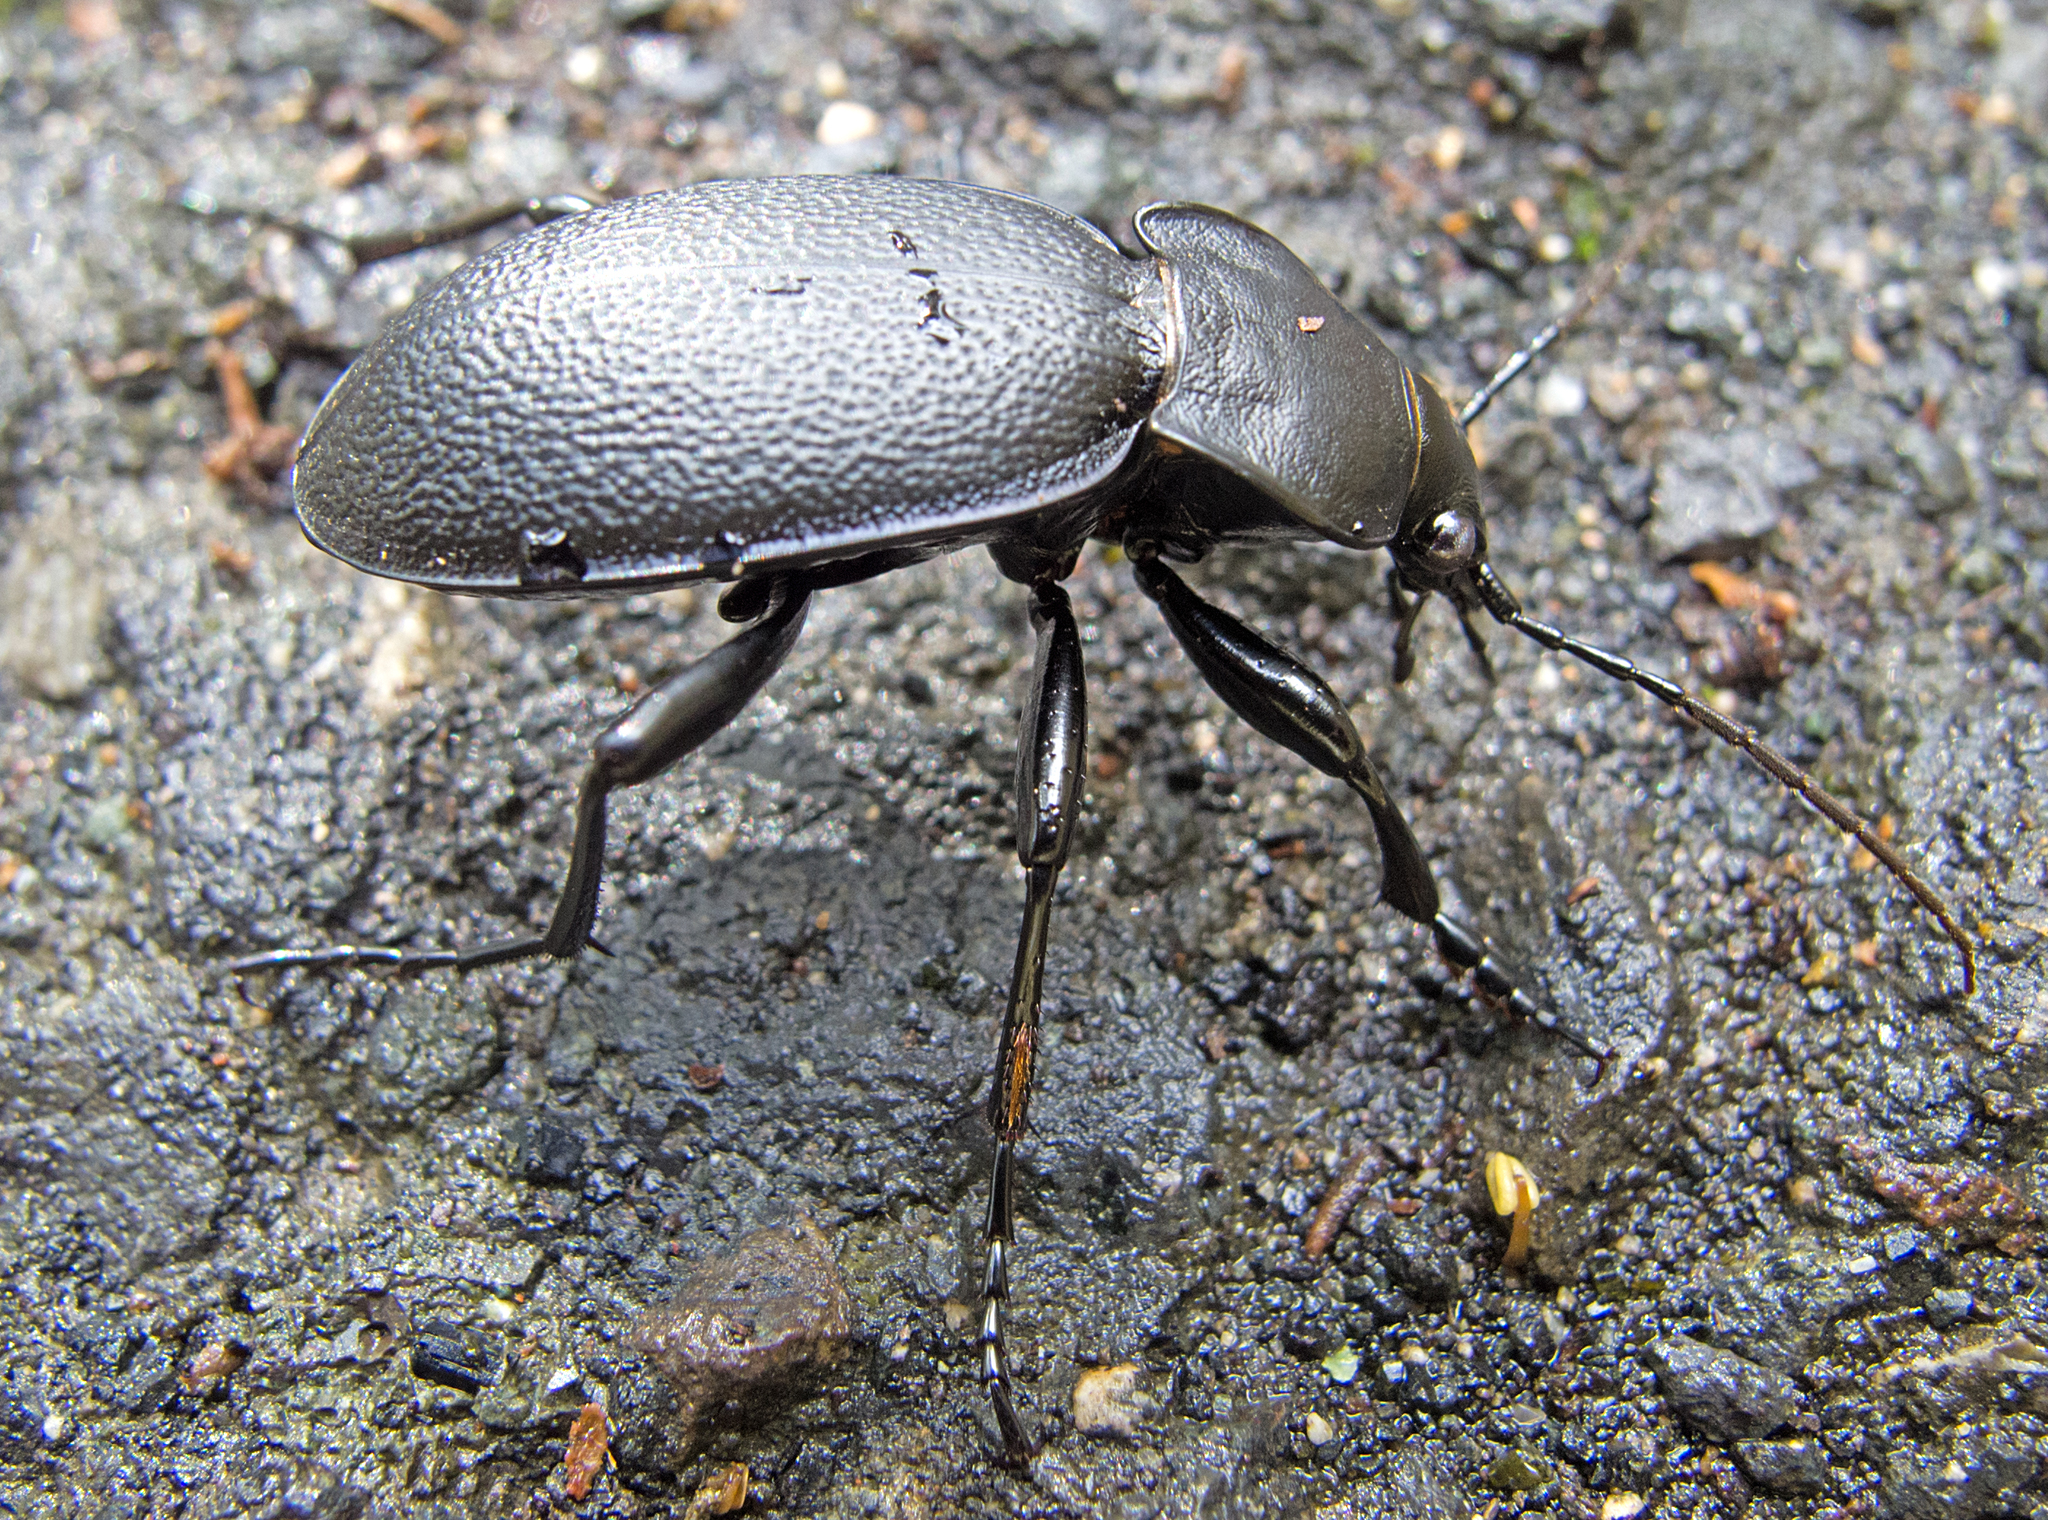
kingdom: Animalia
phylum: Arthropoda
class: Insecta
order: Coleoptera
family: Carabidae
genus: Carabus
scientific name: Carabus coriaceus
